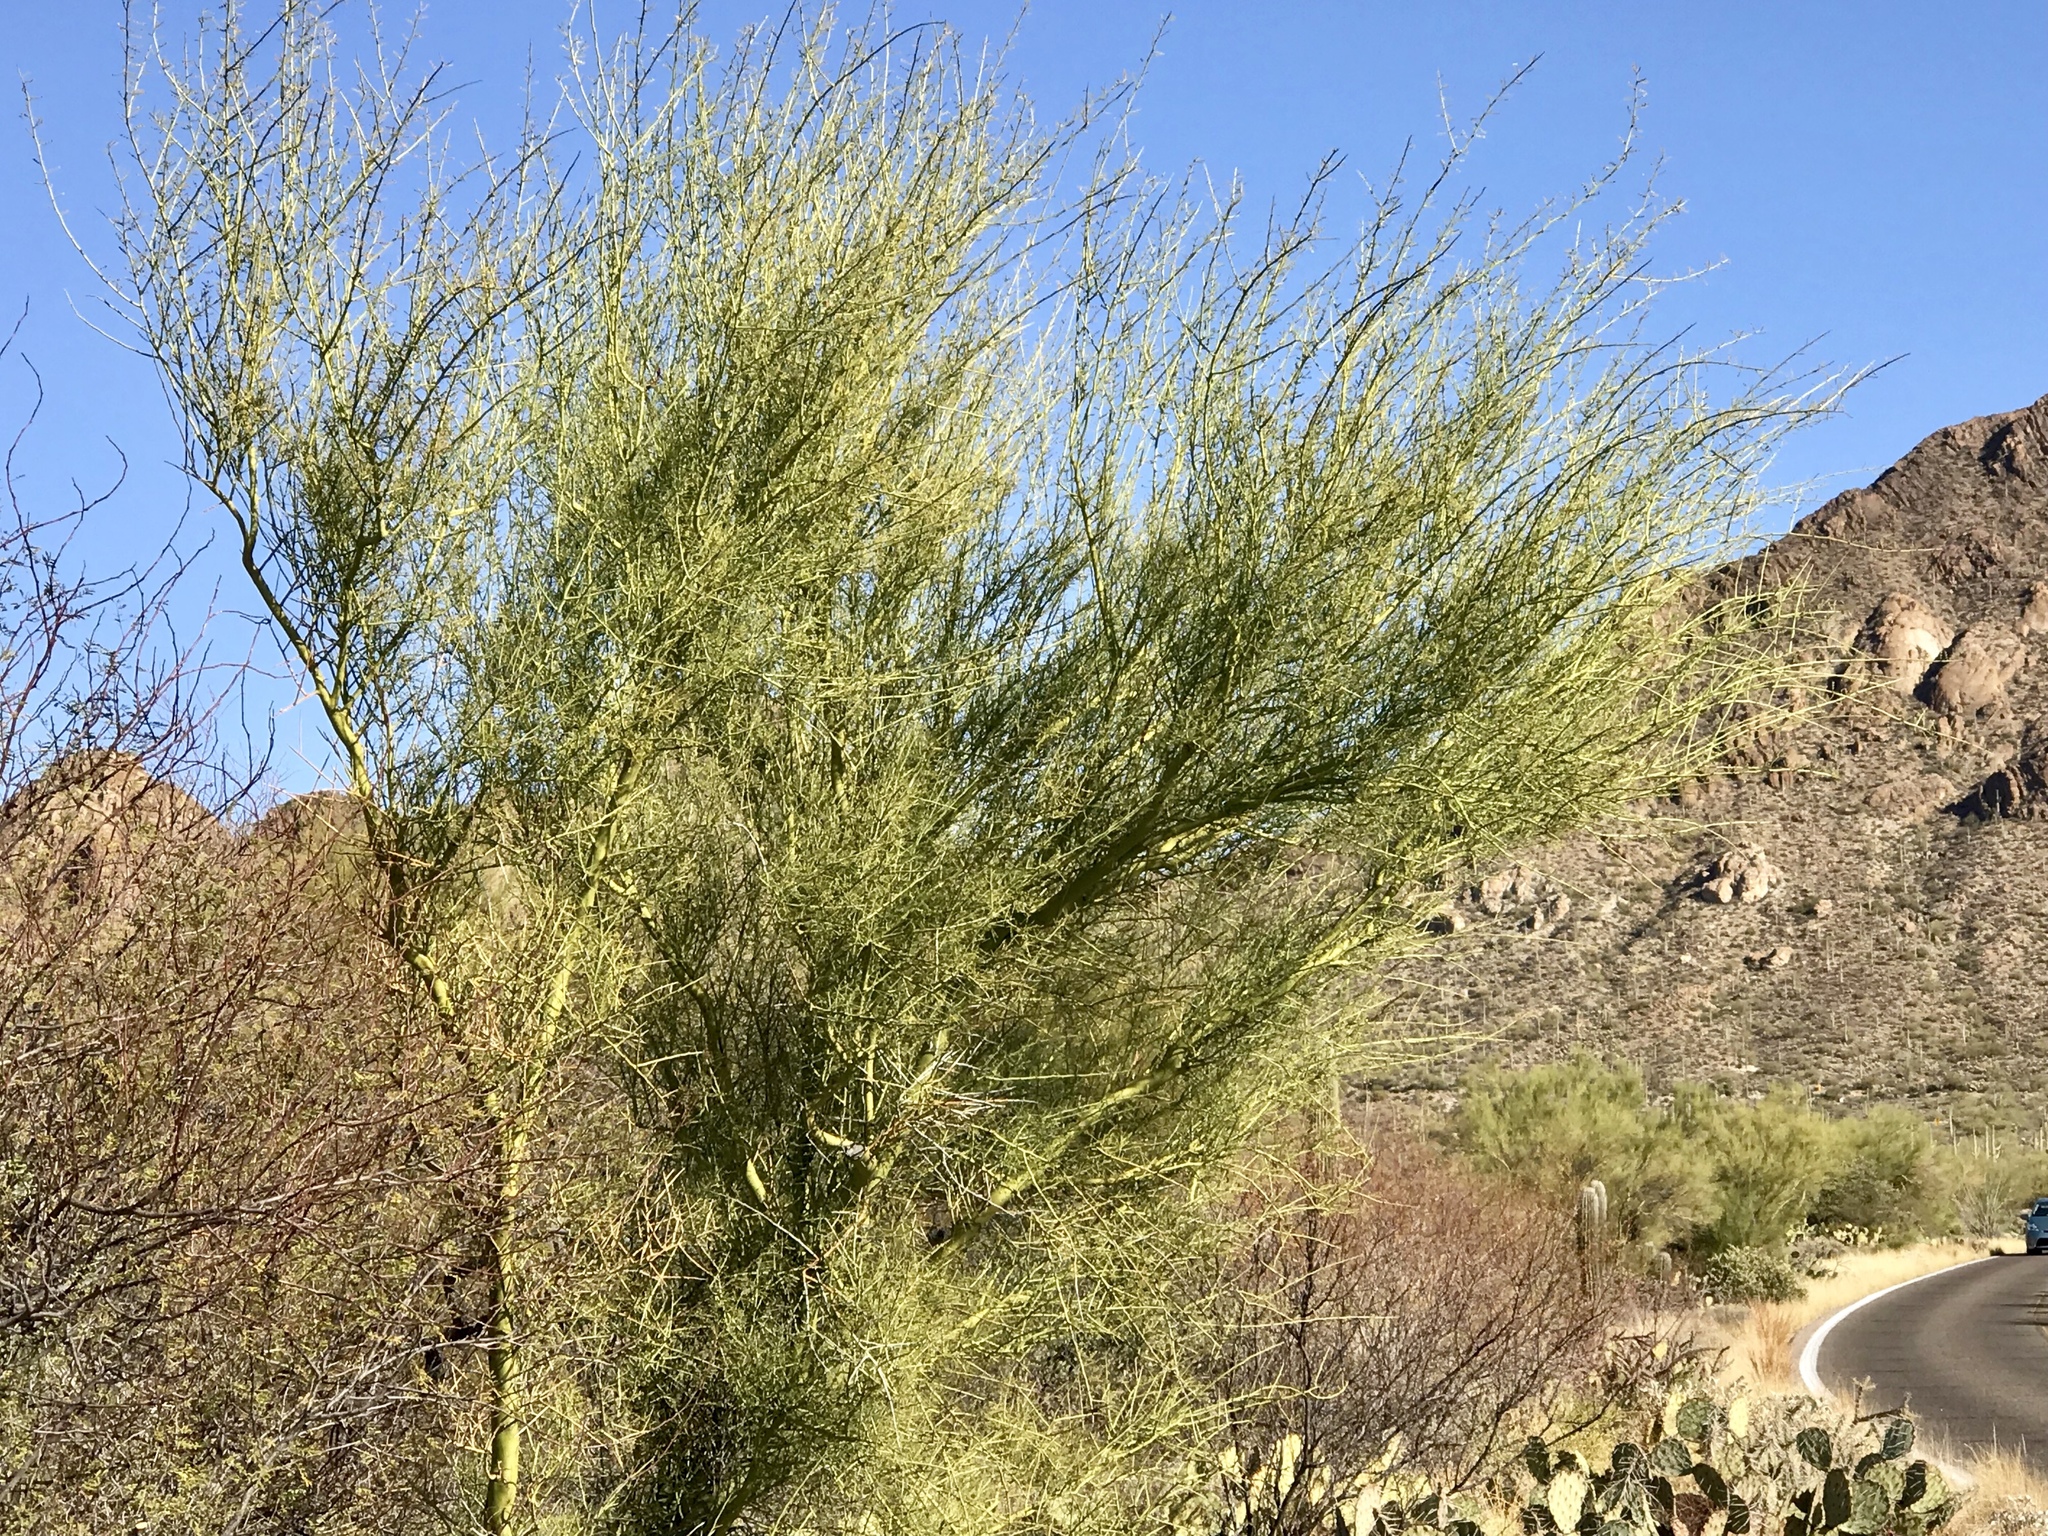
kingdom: Plantae
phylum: Tracheophyta
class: Magnoliopsida
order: Fabales
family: Fabaceae
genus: Parkinsonia
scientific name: Parkinsonia microphylla
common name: Yellow paloverde
